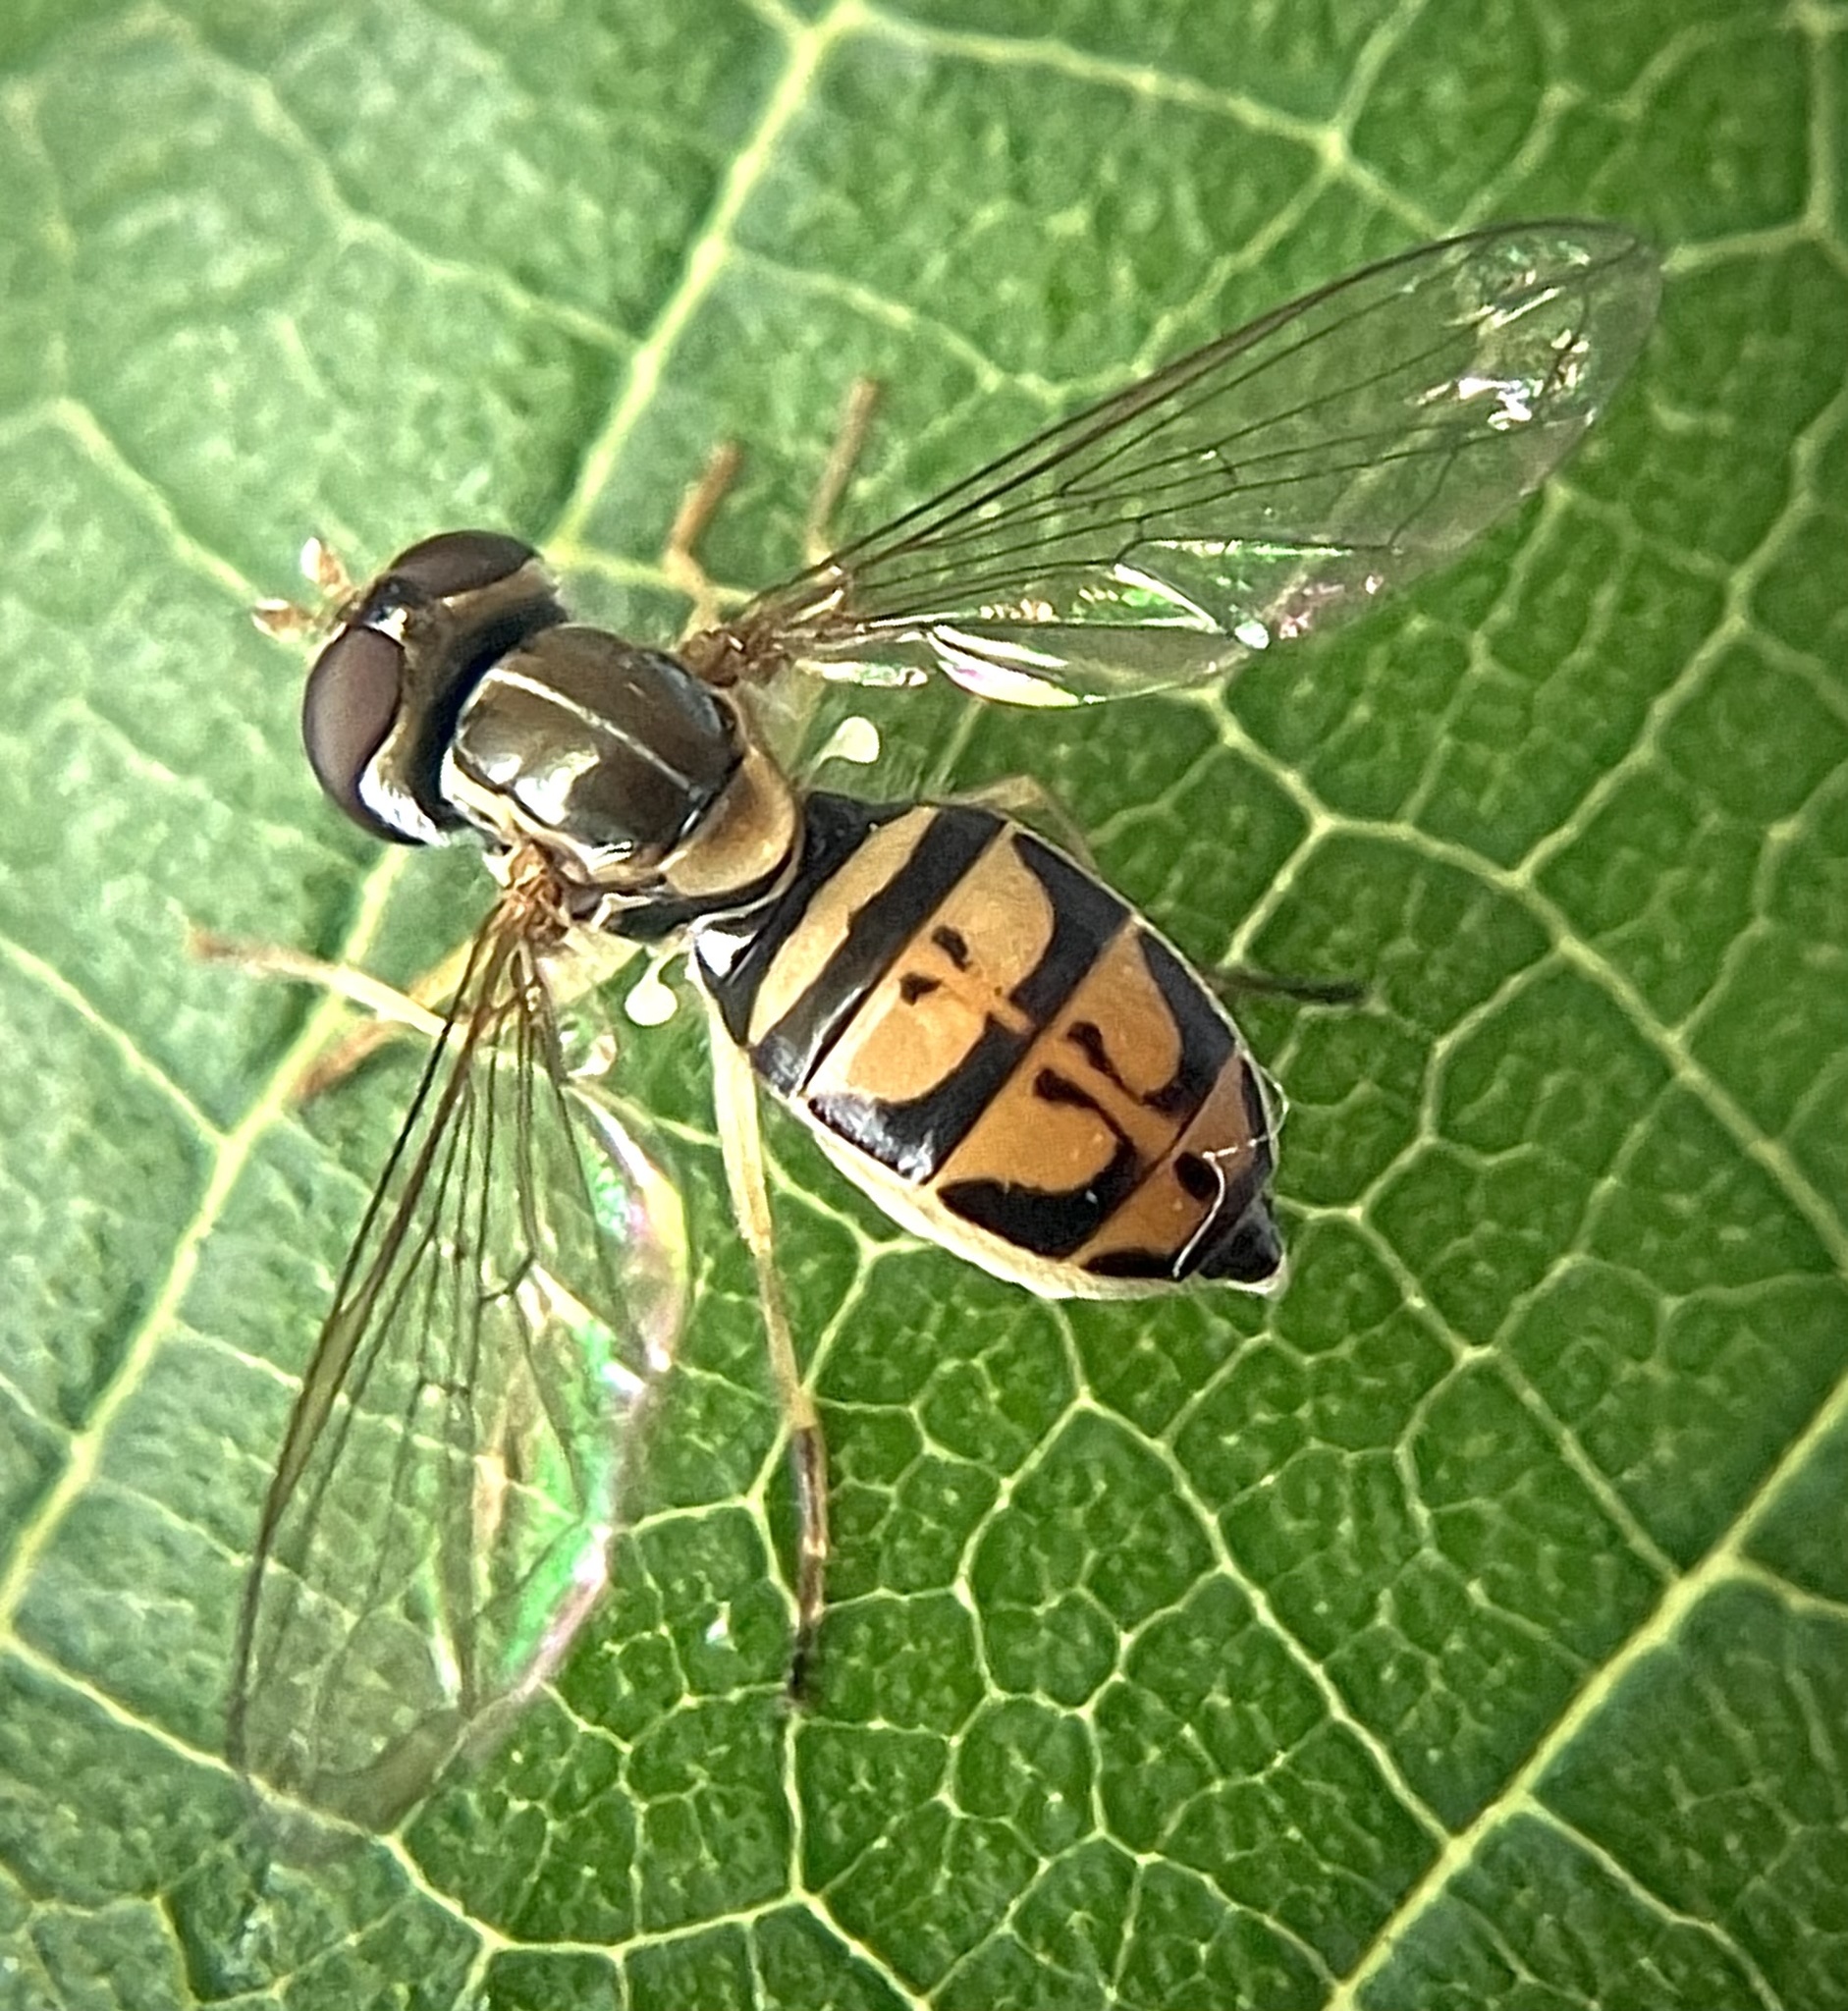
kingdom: Animalia
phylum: Arthropoda
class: Insecta
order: Diptera
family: Syrphidae
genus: Toxomerus
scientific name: Toxomerus marginatus
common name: Syrphid fly
